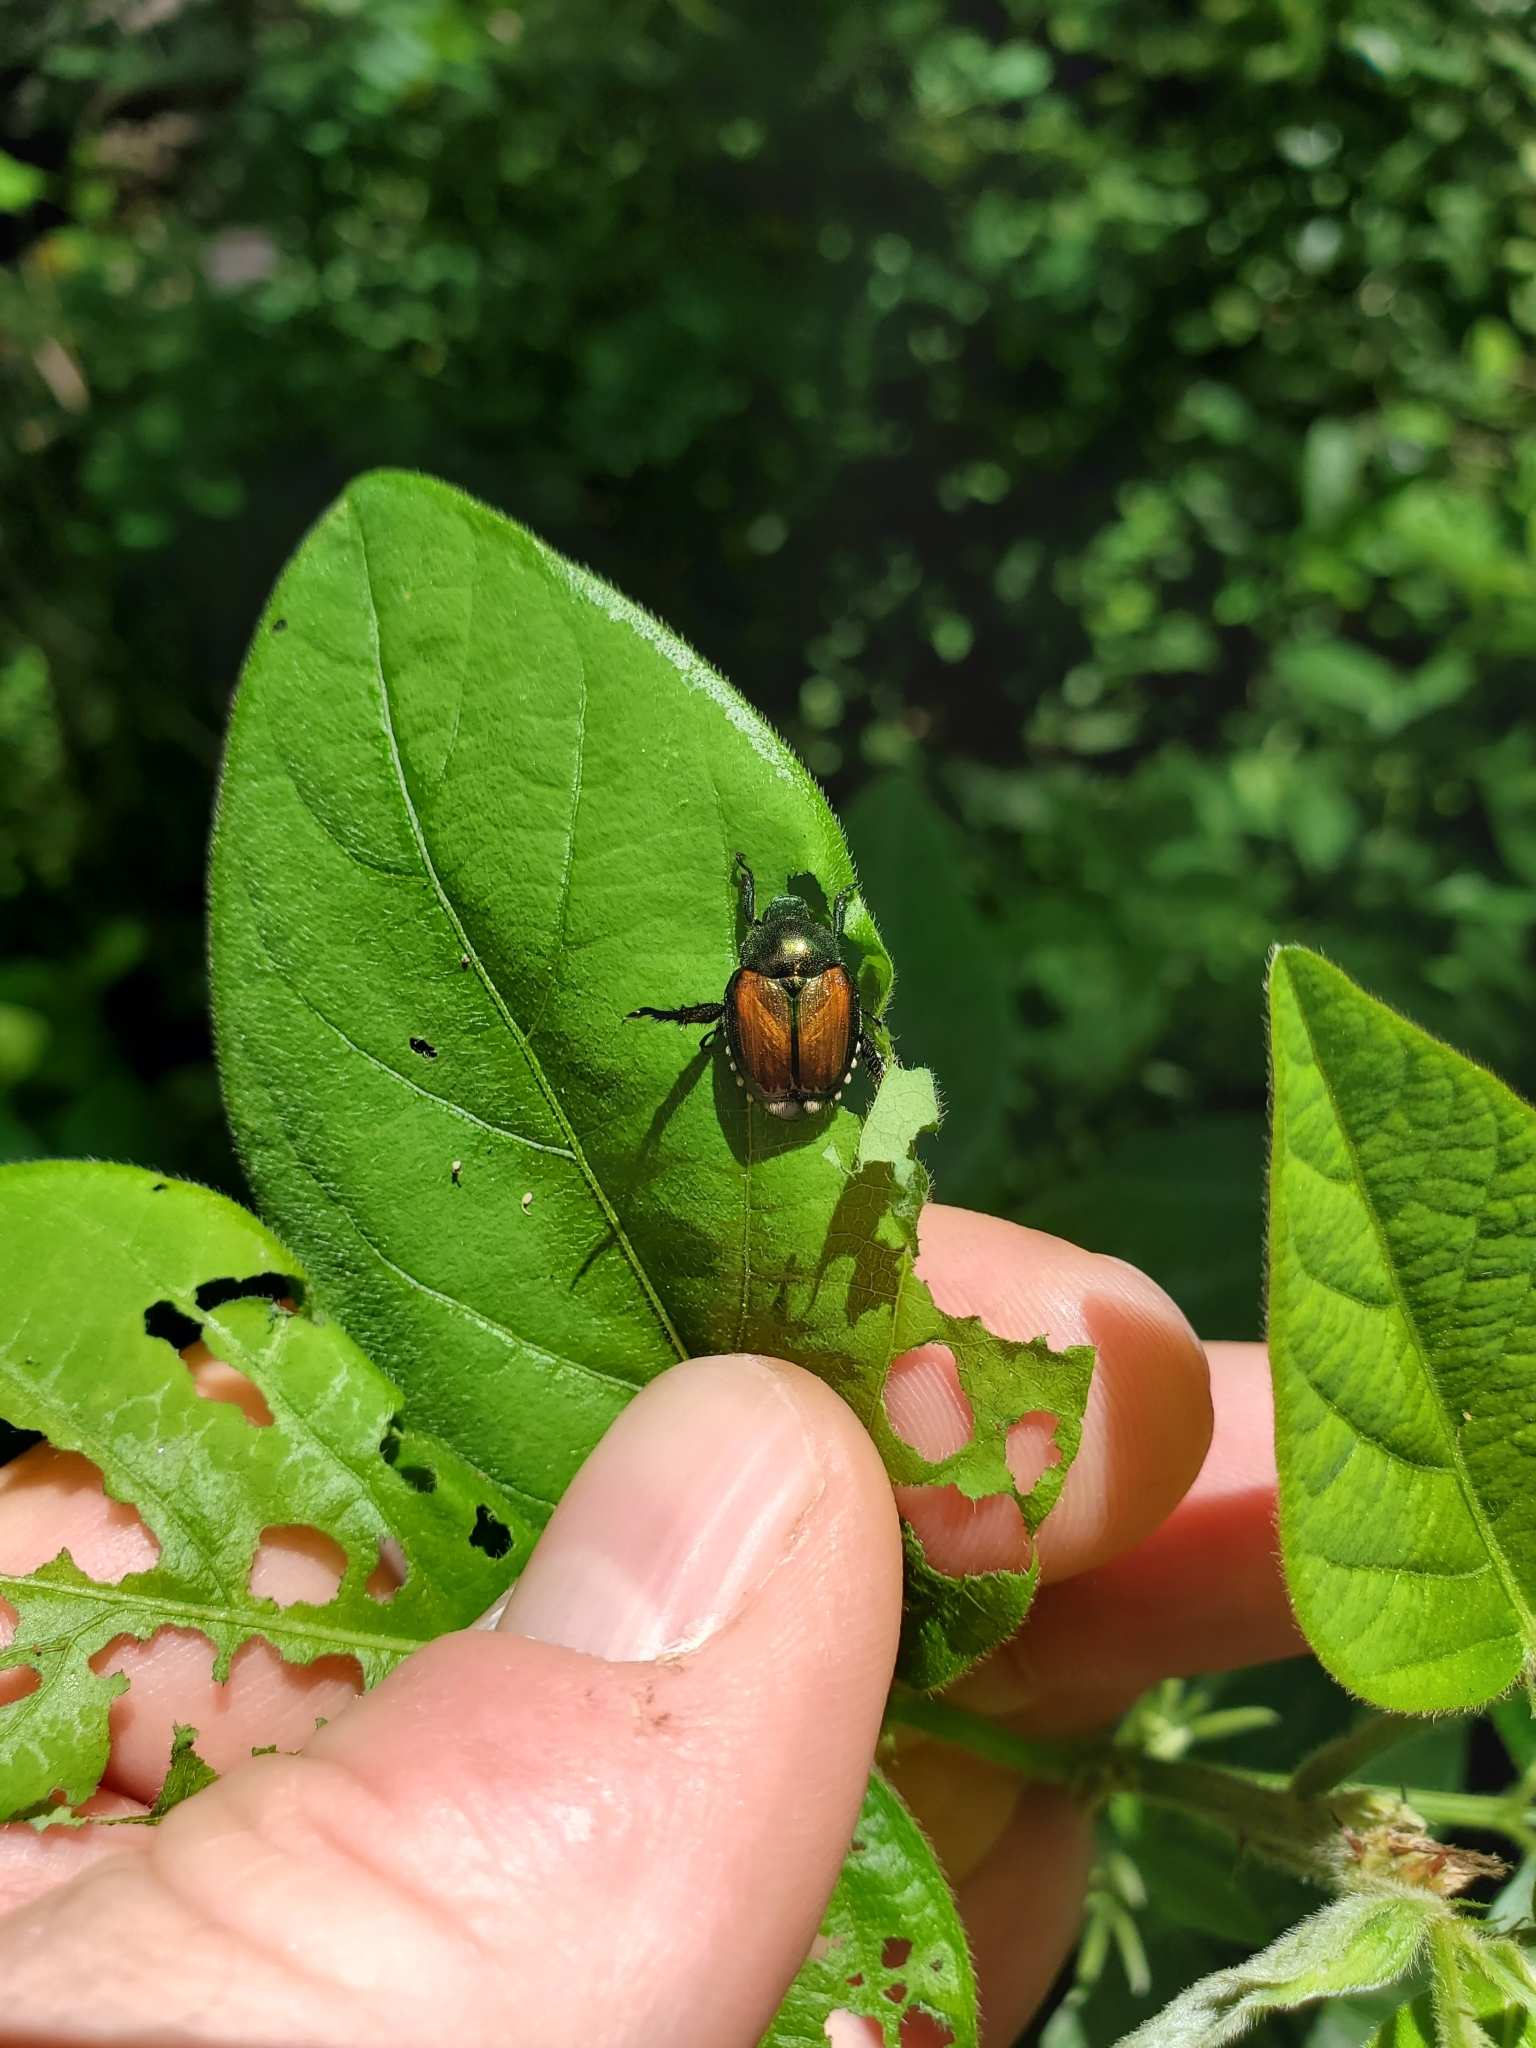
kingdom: Animalia
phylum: Arthropoda
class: Insecta
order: Coleoptera
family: Scarabaeidae
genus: Popillia
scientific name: Popillia japonica
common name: Japanese beetle
